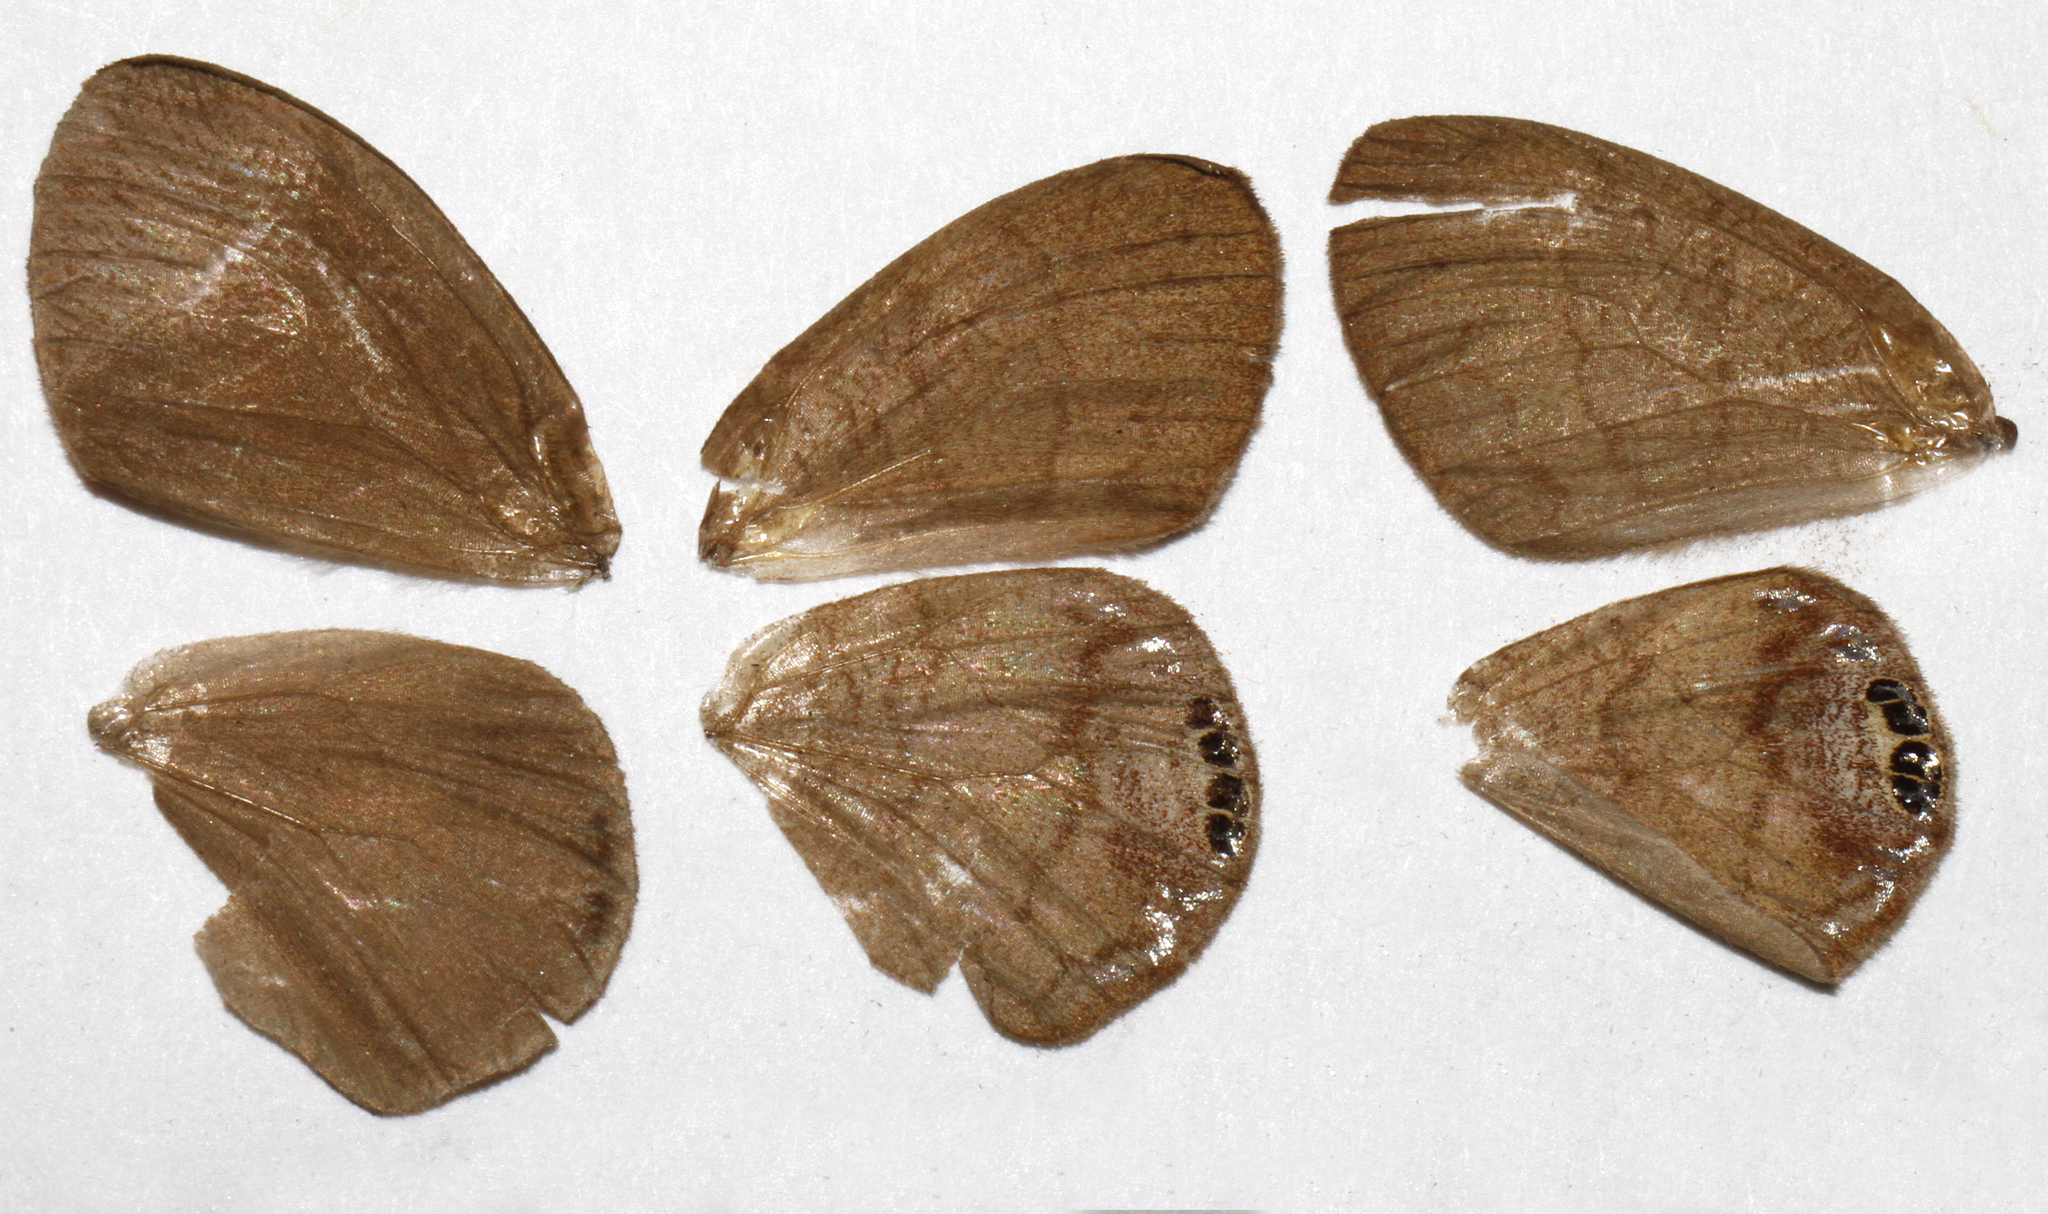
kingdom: Animalia
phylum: Arthropoda
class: Insecta
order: Lepidoptera
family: Nymphalidae
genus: Euptychia
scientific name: Euptychia cornelius
